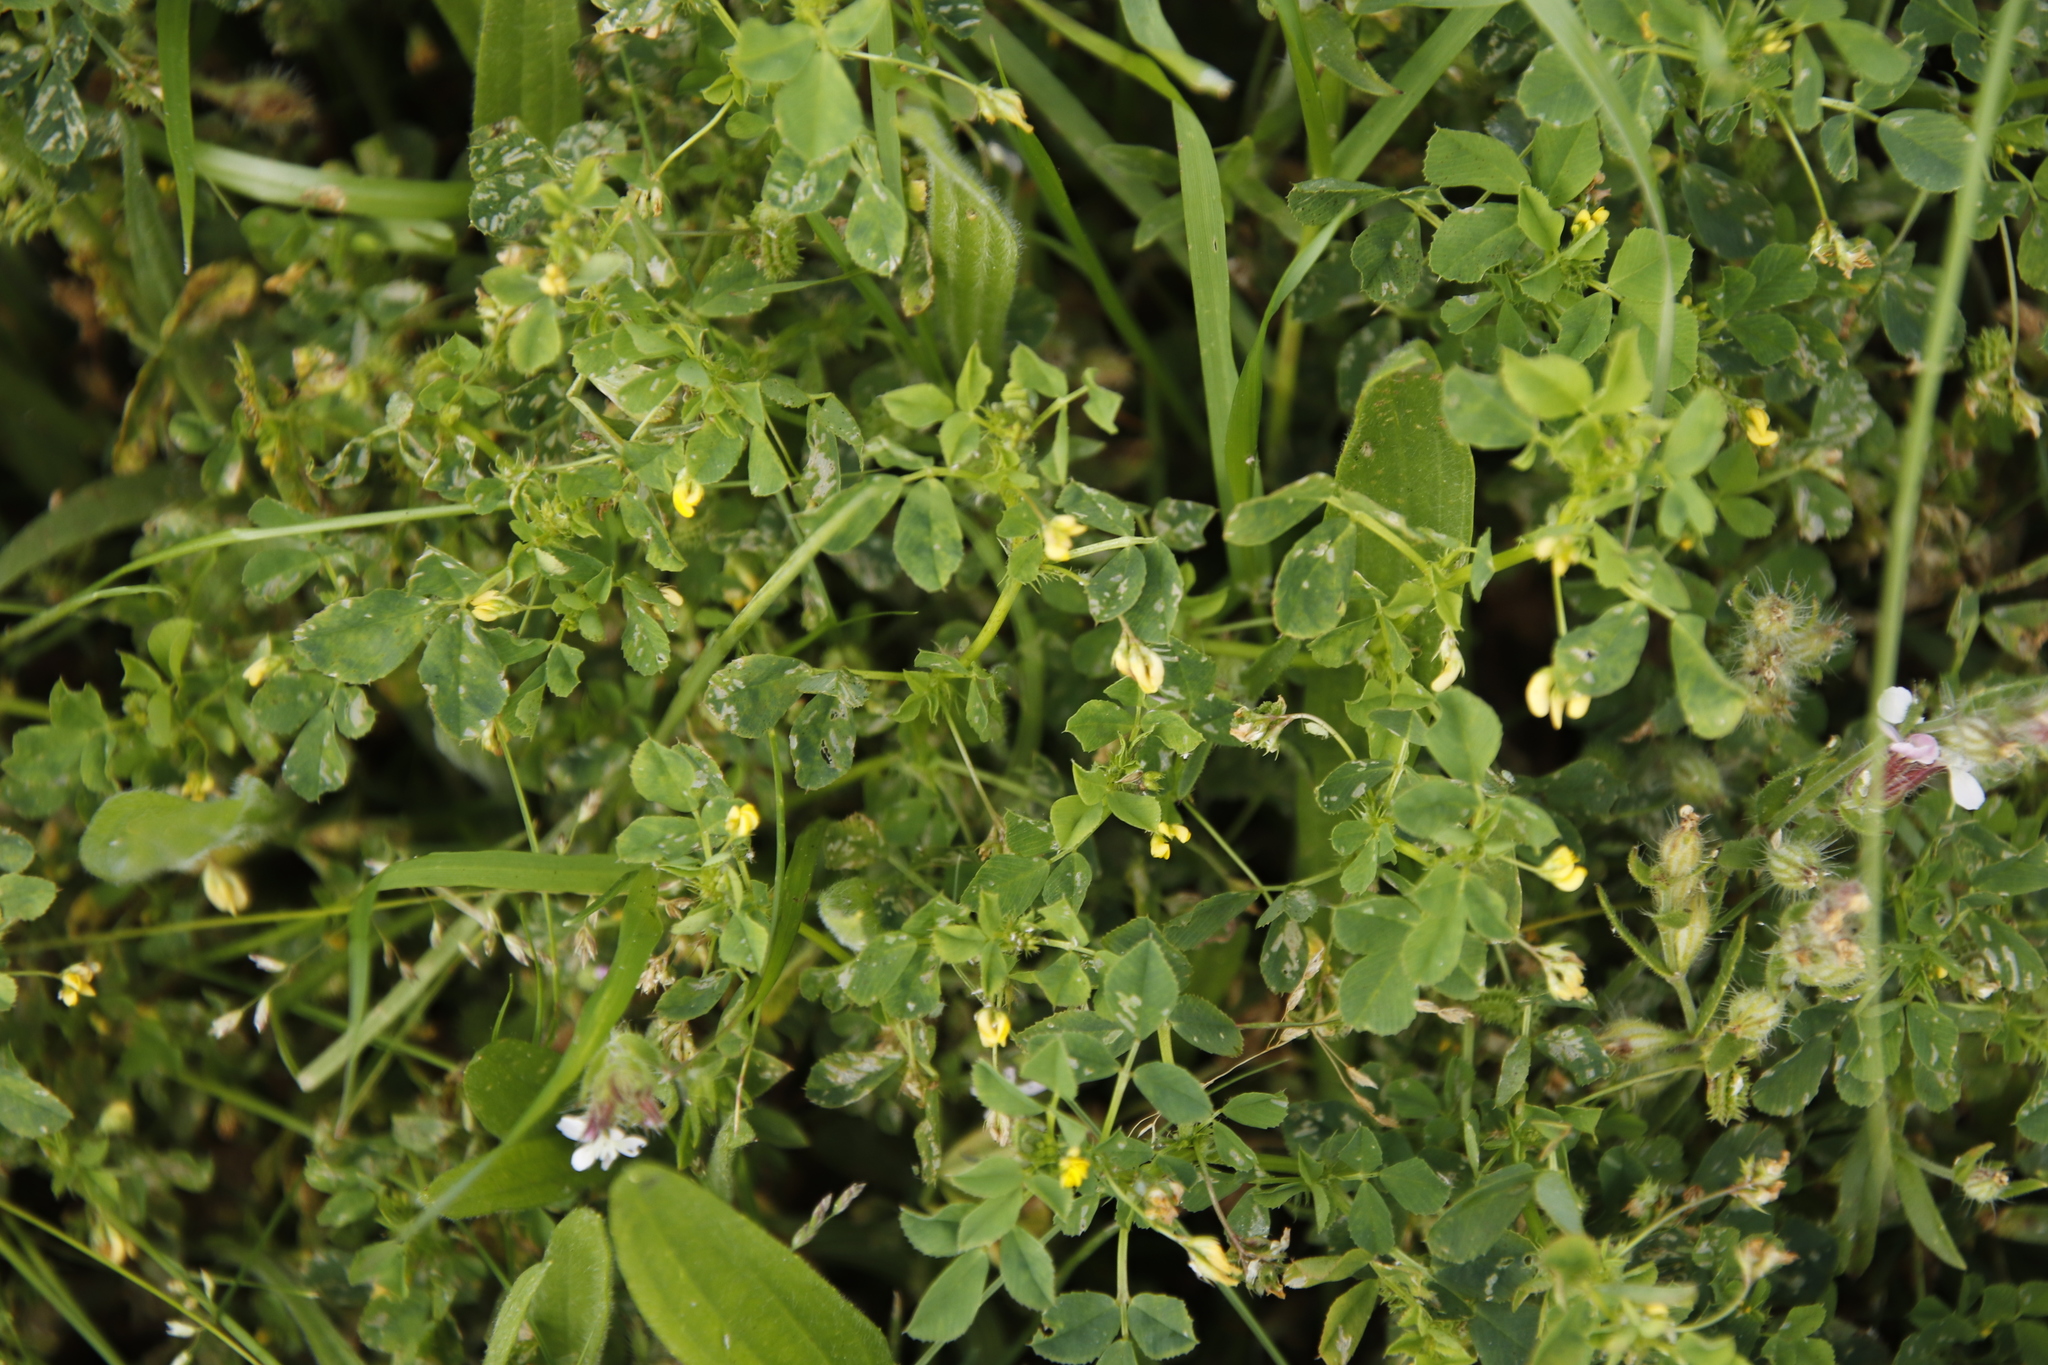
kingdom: Plantae
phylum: Tracheophyta
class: Magnoliopsida
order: Fabales
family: Fabaceae
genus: Medicago
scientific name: Medicago polymorpha
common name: Burclover
